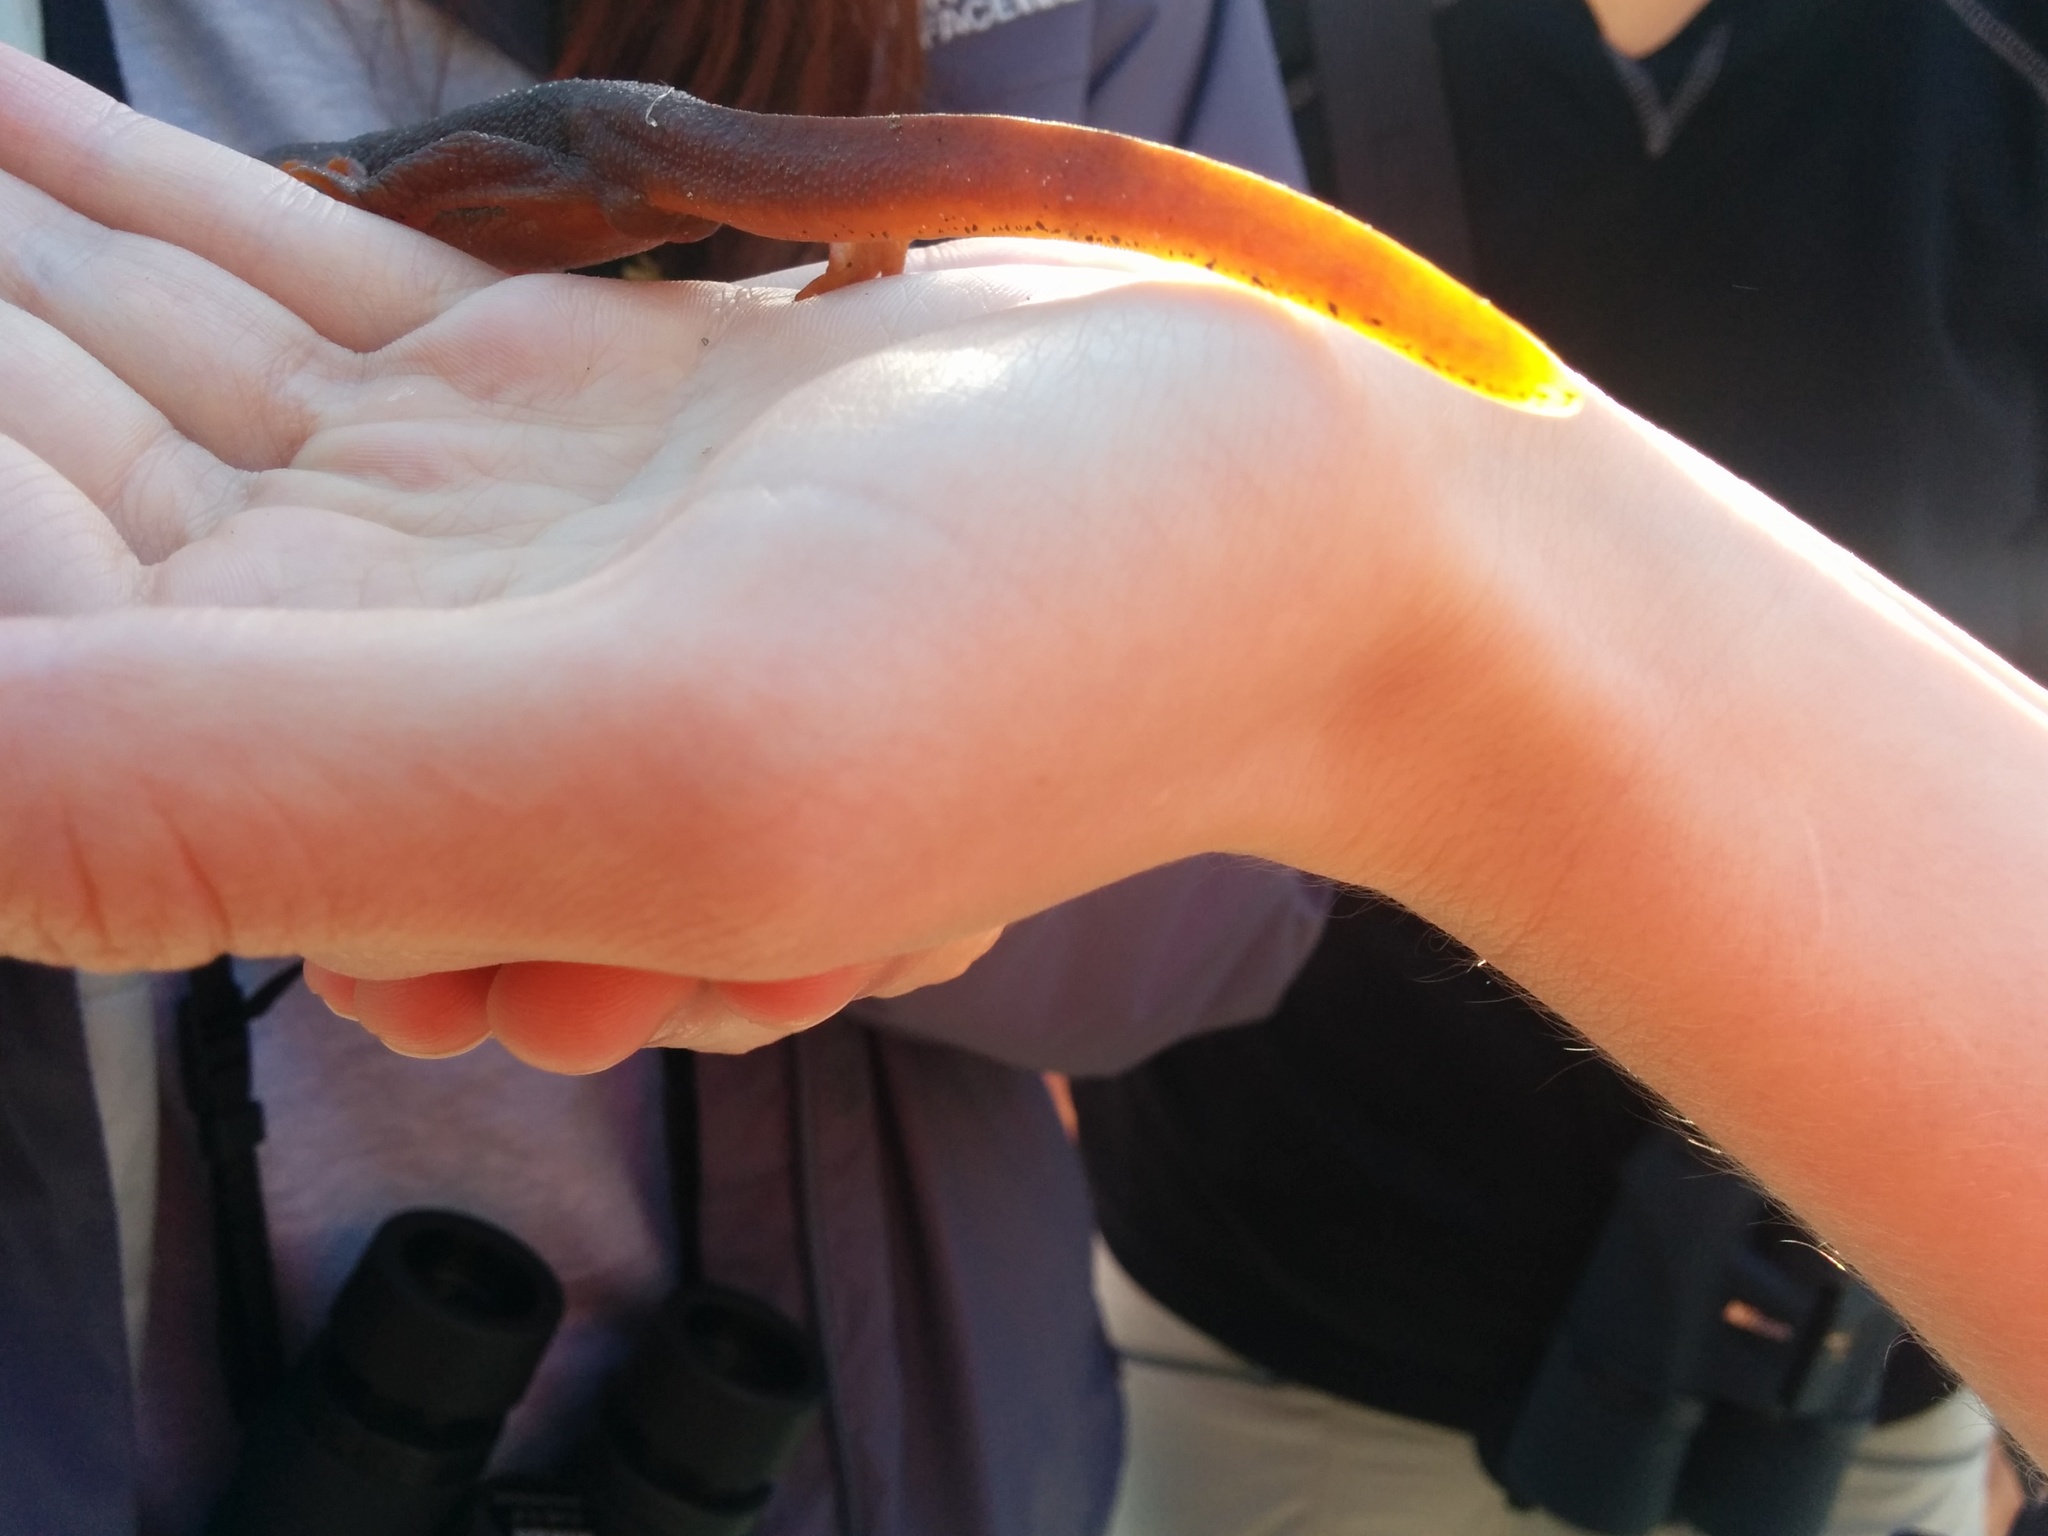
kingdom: Animalia
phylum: Chordata
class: Amphibia
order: Caudata
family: Salamandridae
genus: Taricha
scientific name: Taricha torosa
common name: California newt
